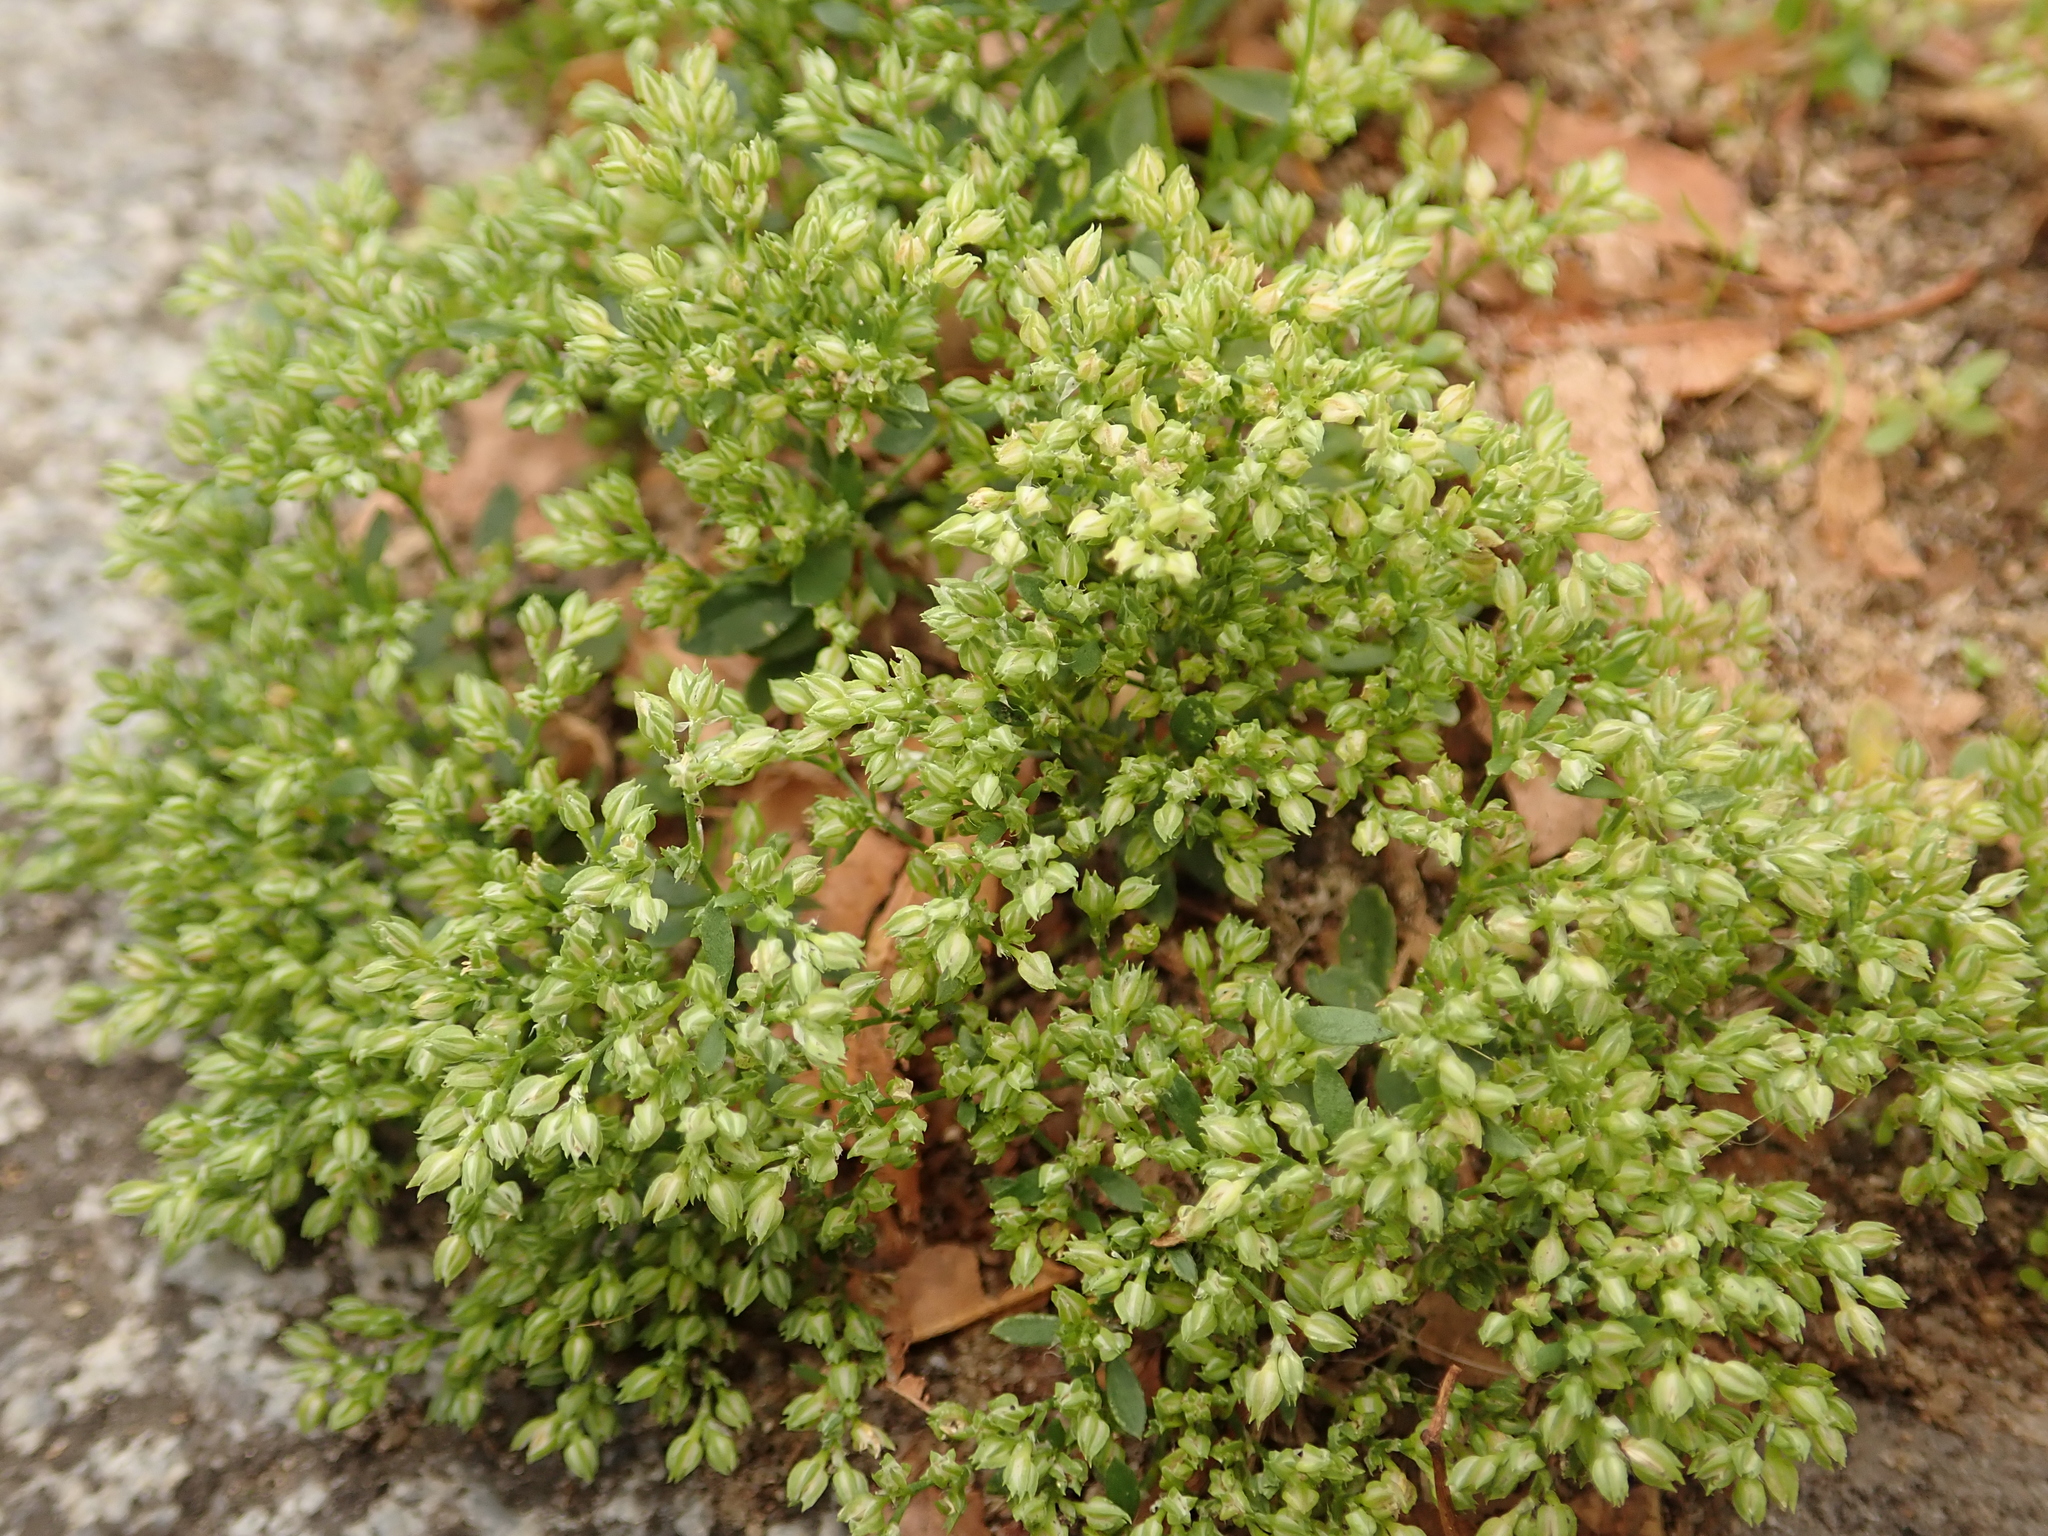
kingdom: Plantae
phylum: Tracheophyta
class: Magnoliopsida
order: Caryophyllales
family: Caryophyllaceae
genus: Polycarpon
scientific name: Polycarpon tetraphyllum
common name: Four-leaved all-seed
